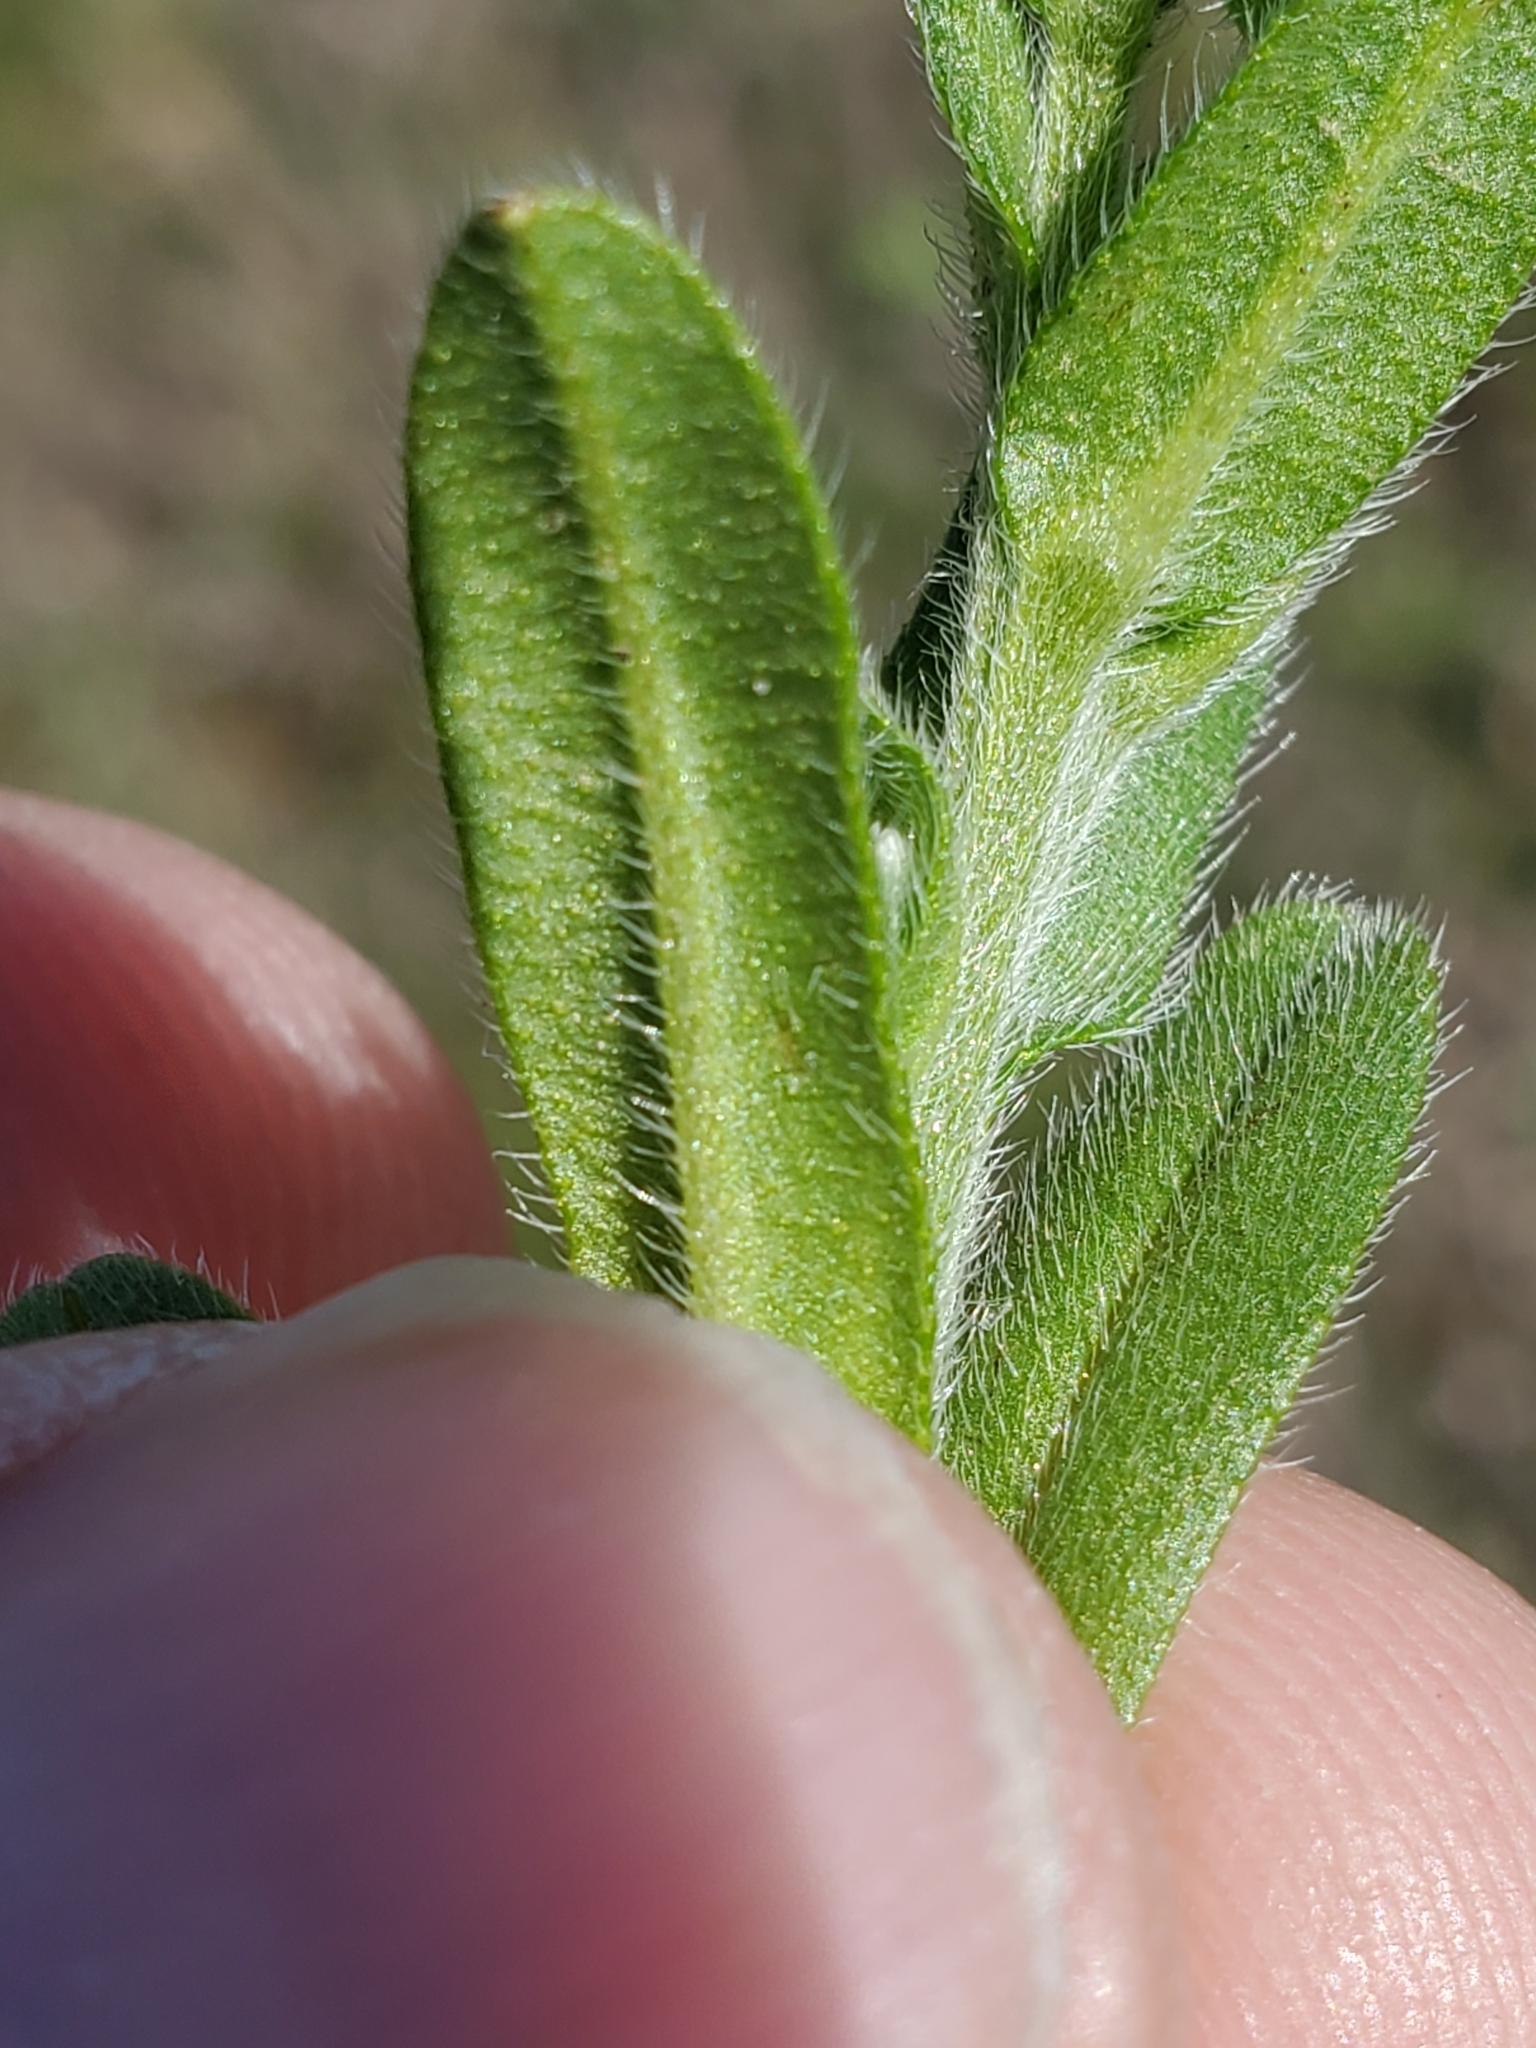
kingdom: Plantae
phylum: Tracheophyta
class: Magnoliopsida
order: Boraginales
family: Boraginaceae
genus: Myosotis
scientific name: Myosotis verna
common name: Early forget-me-not
